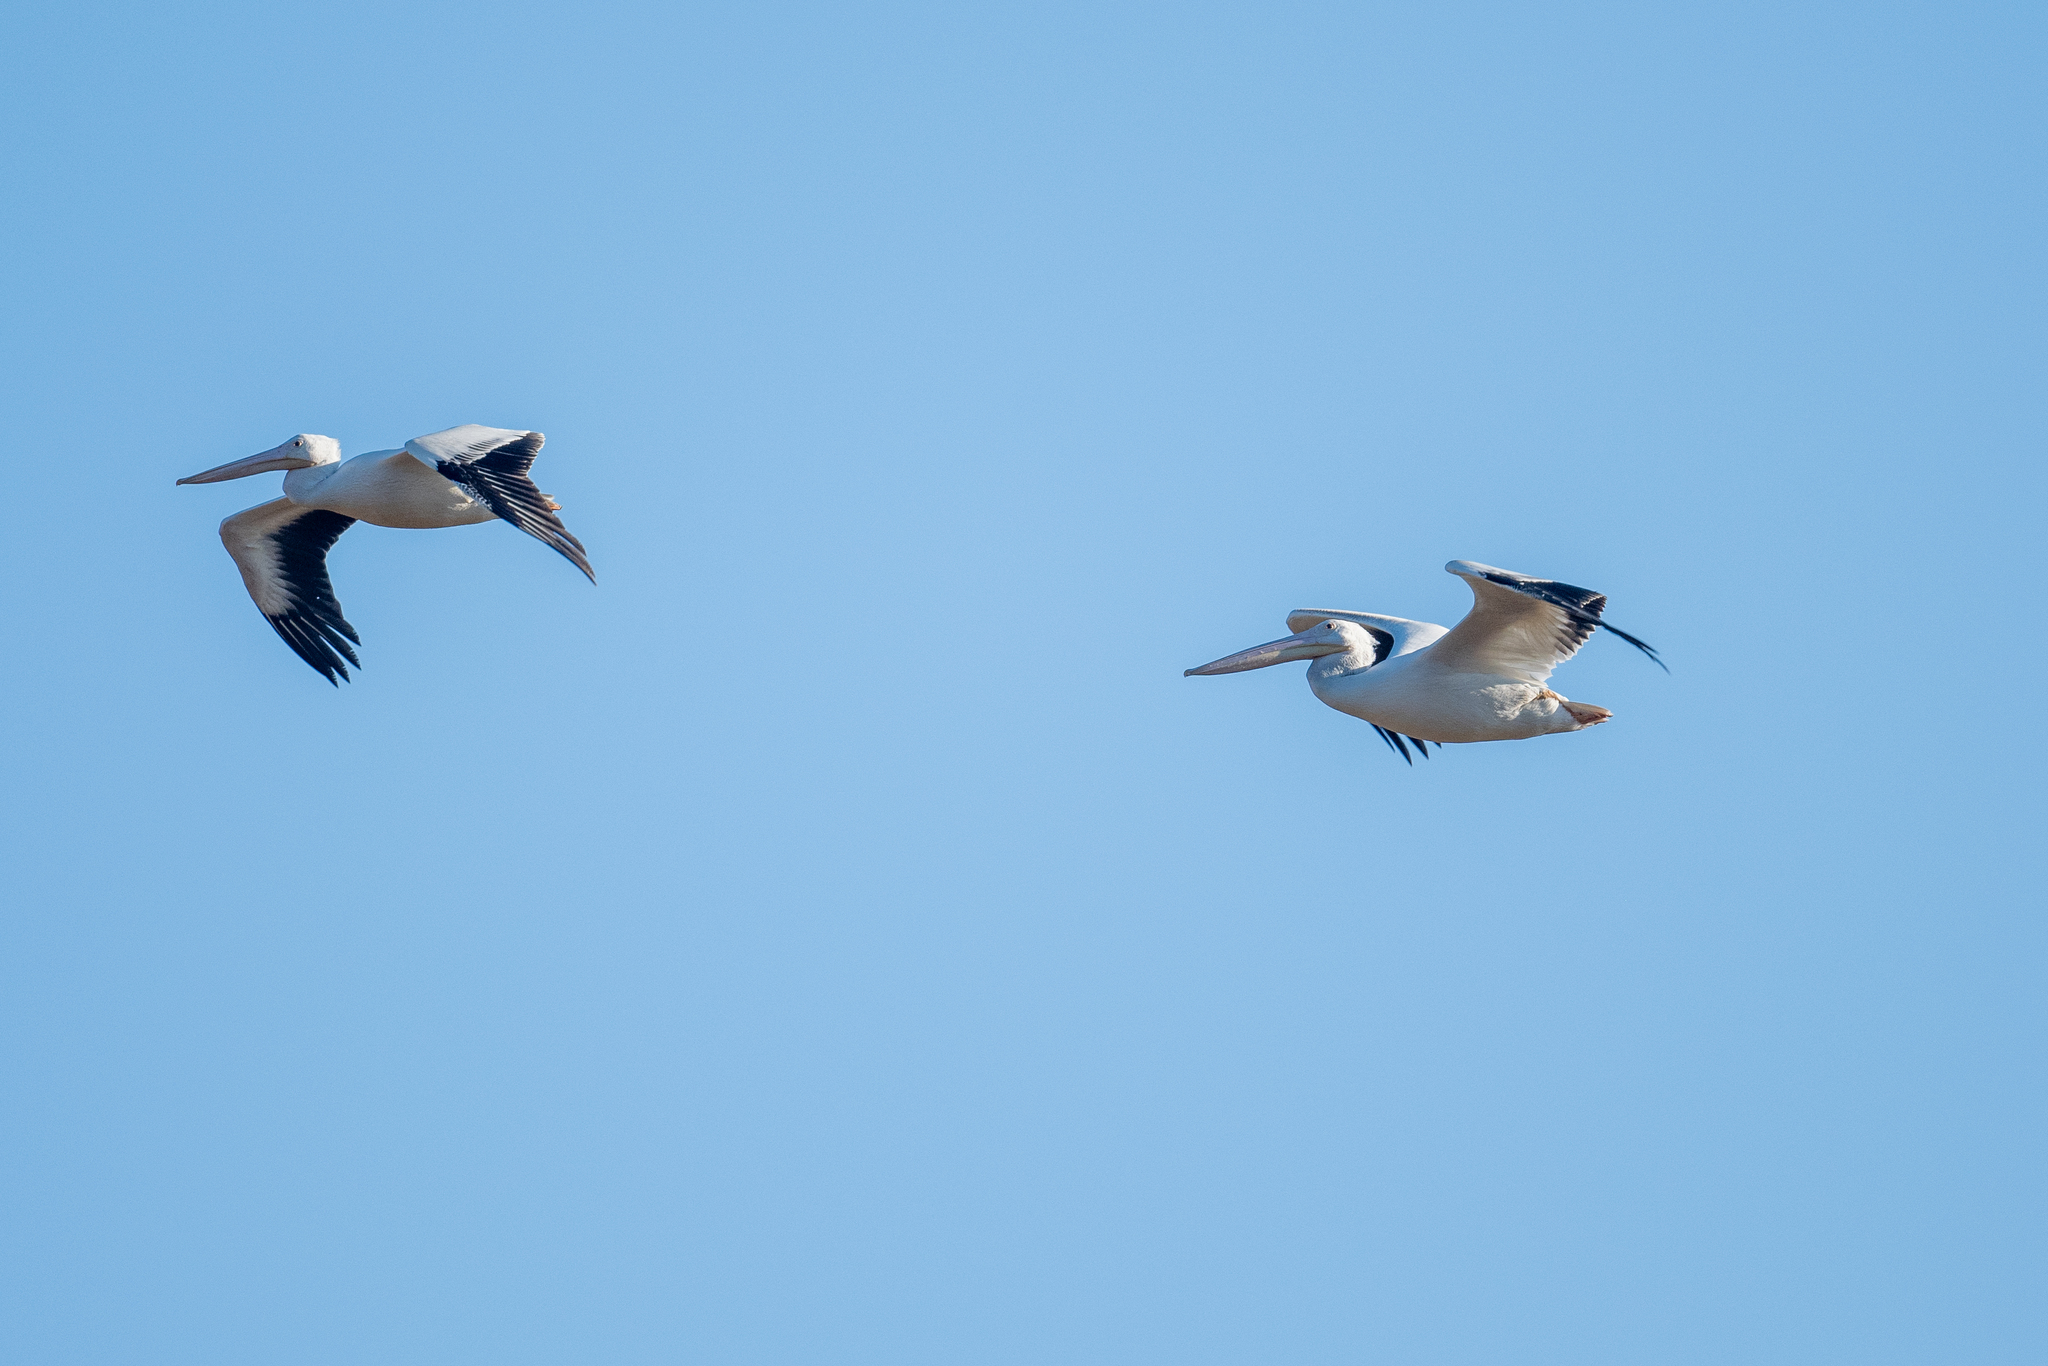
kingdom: Animalia
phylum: Chordata
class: Aves
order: Pelecaniformes
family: Pelecanidae
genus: Pelecanus
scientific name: Pelecanus erythrorhynchos
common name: American white pelican
